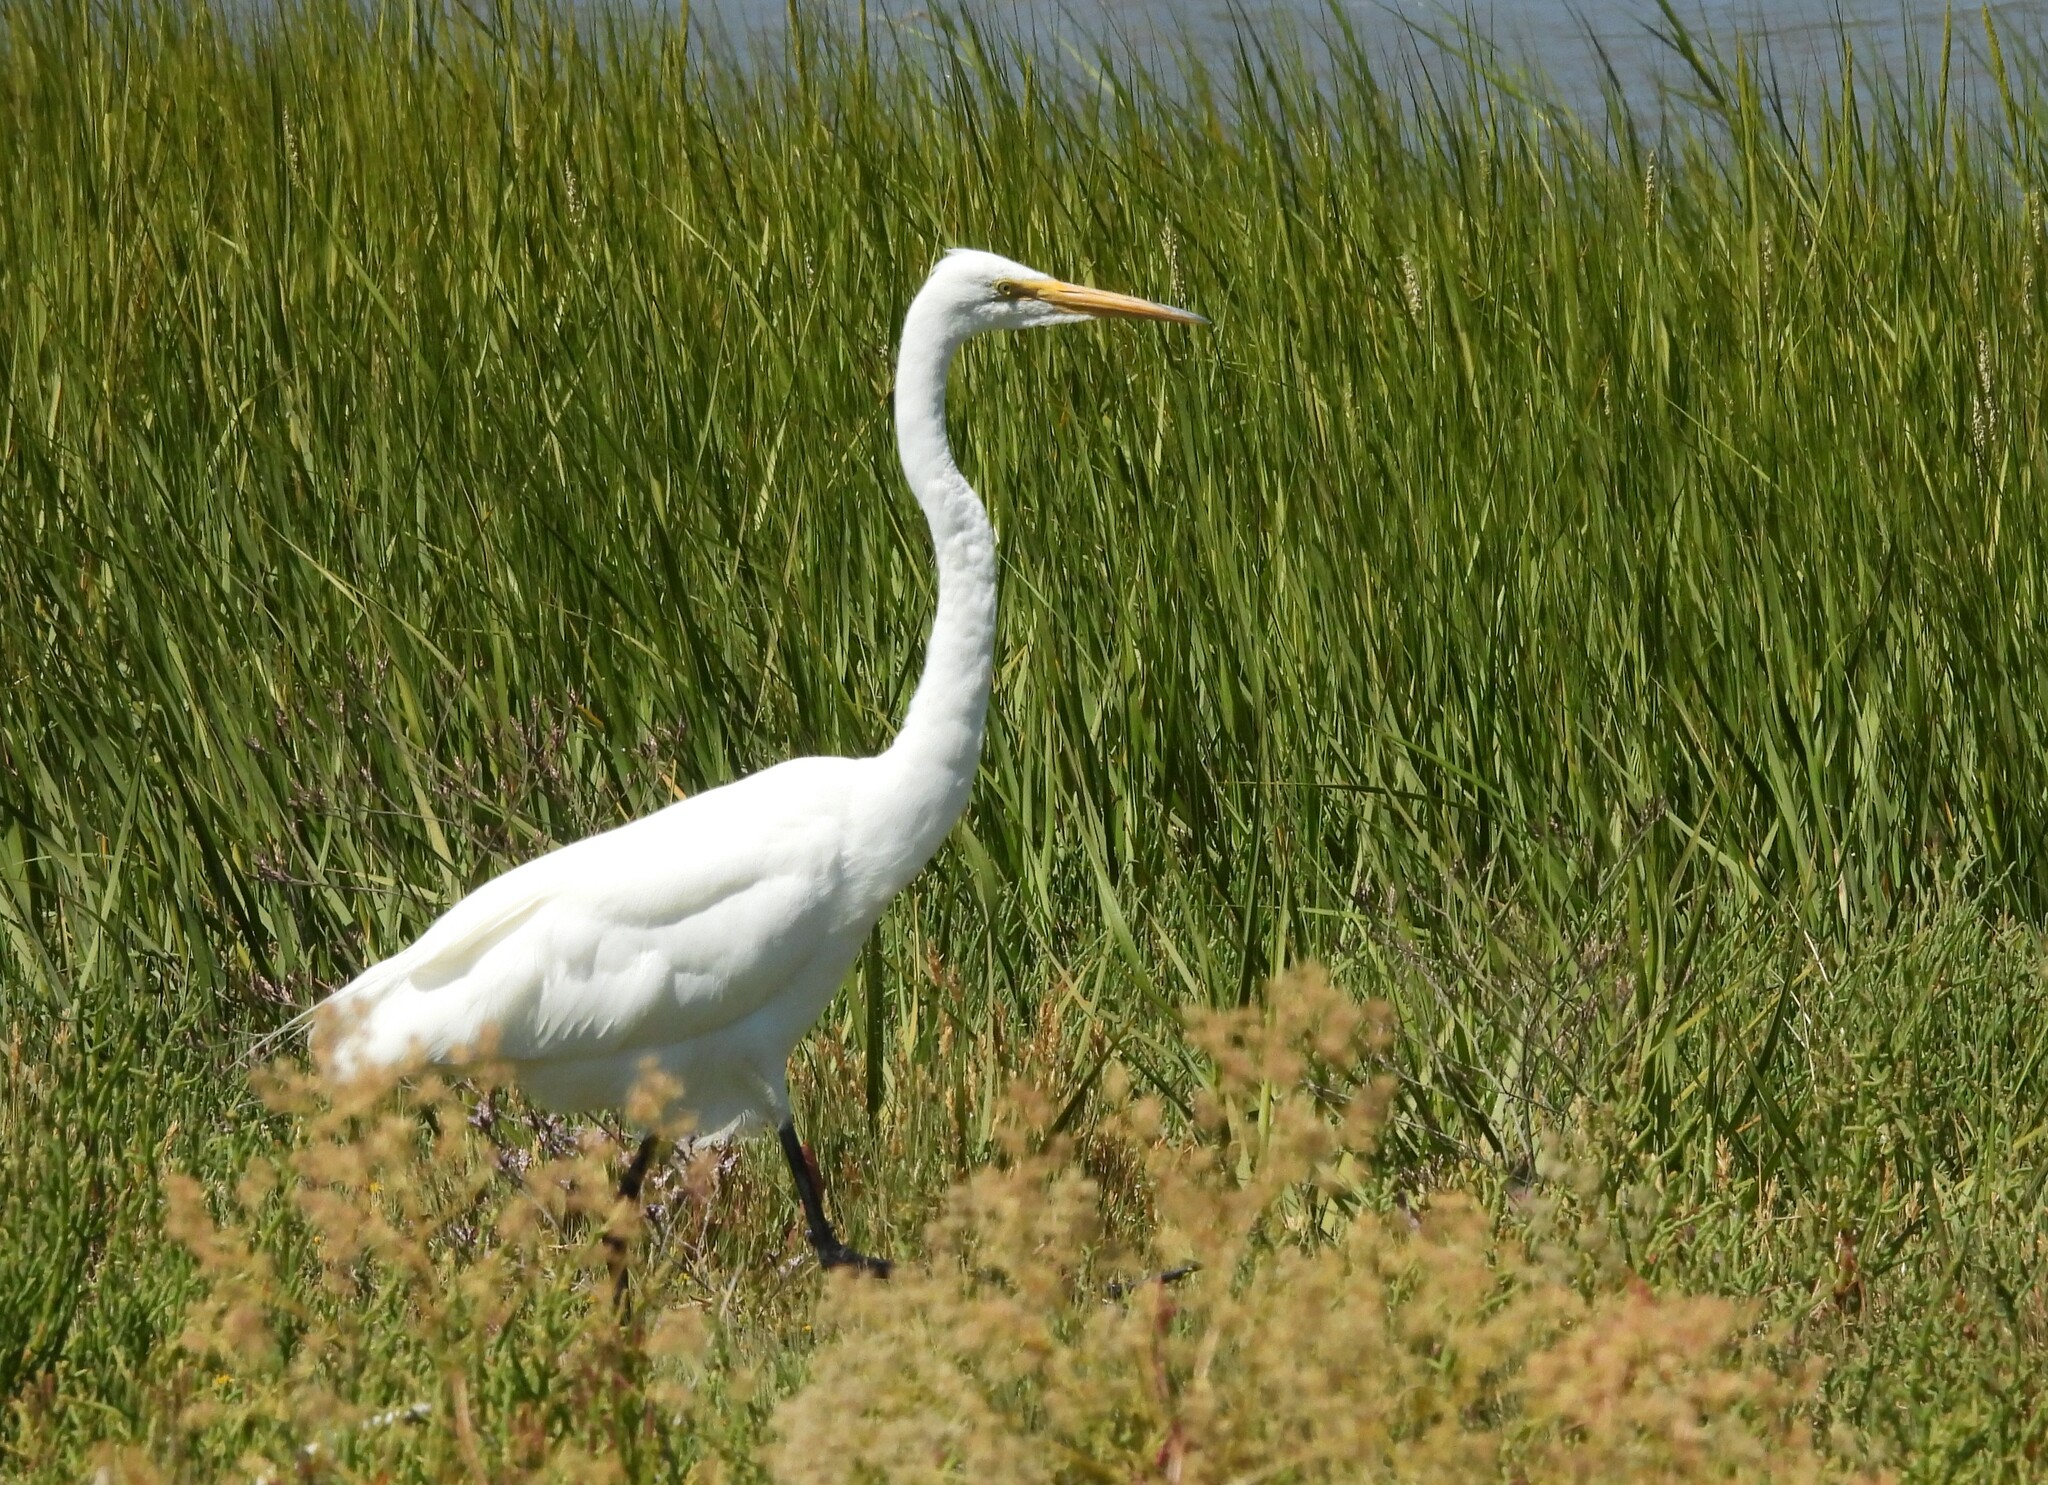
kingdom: Animalia
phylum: Chordata
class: Aves
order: Pelecaniformes
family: Ardeidae
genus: Ardea
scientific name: Ardea alba
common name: Great egret
